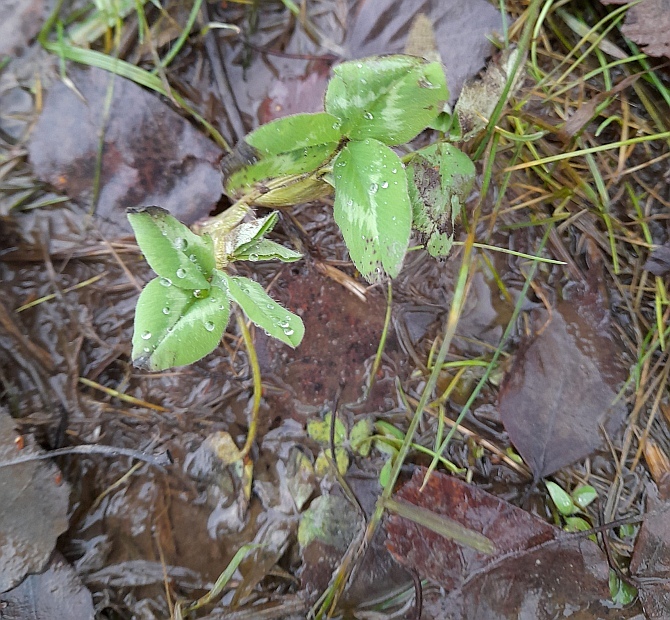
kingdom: Plantae
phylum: Tracheophyta
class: Magnoliopsida
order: Fabales
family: Fabaceae
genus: Trifolium
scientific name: Trifolium pratense
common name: Red clover
